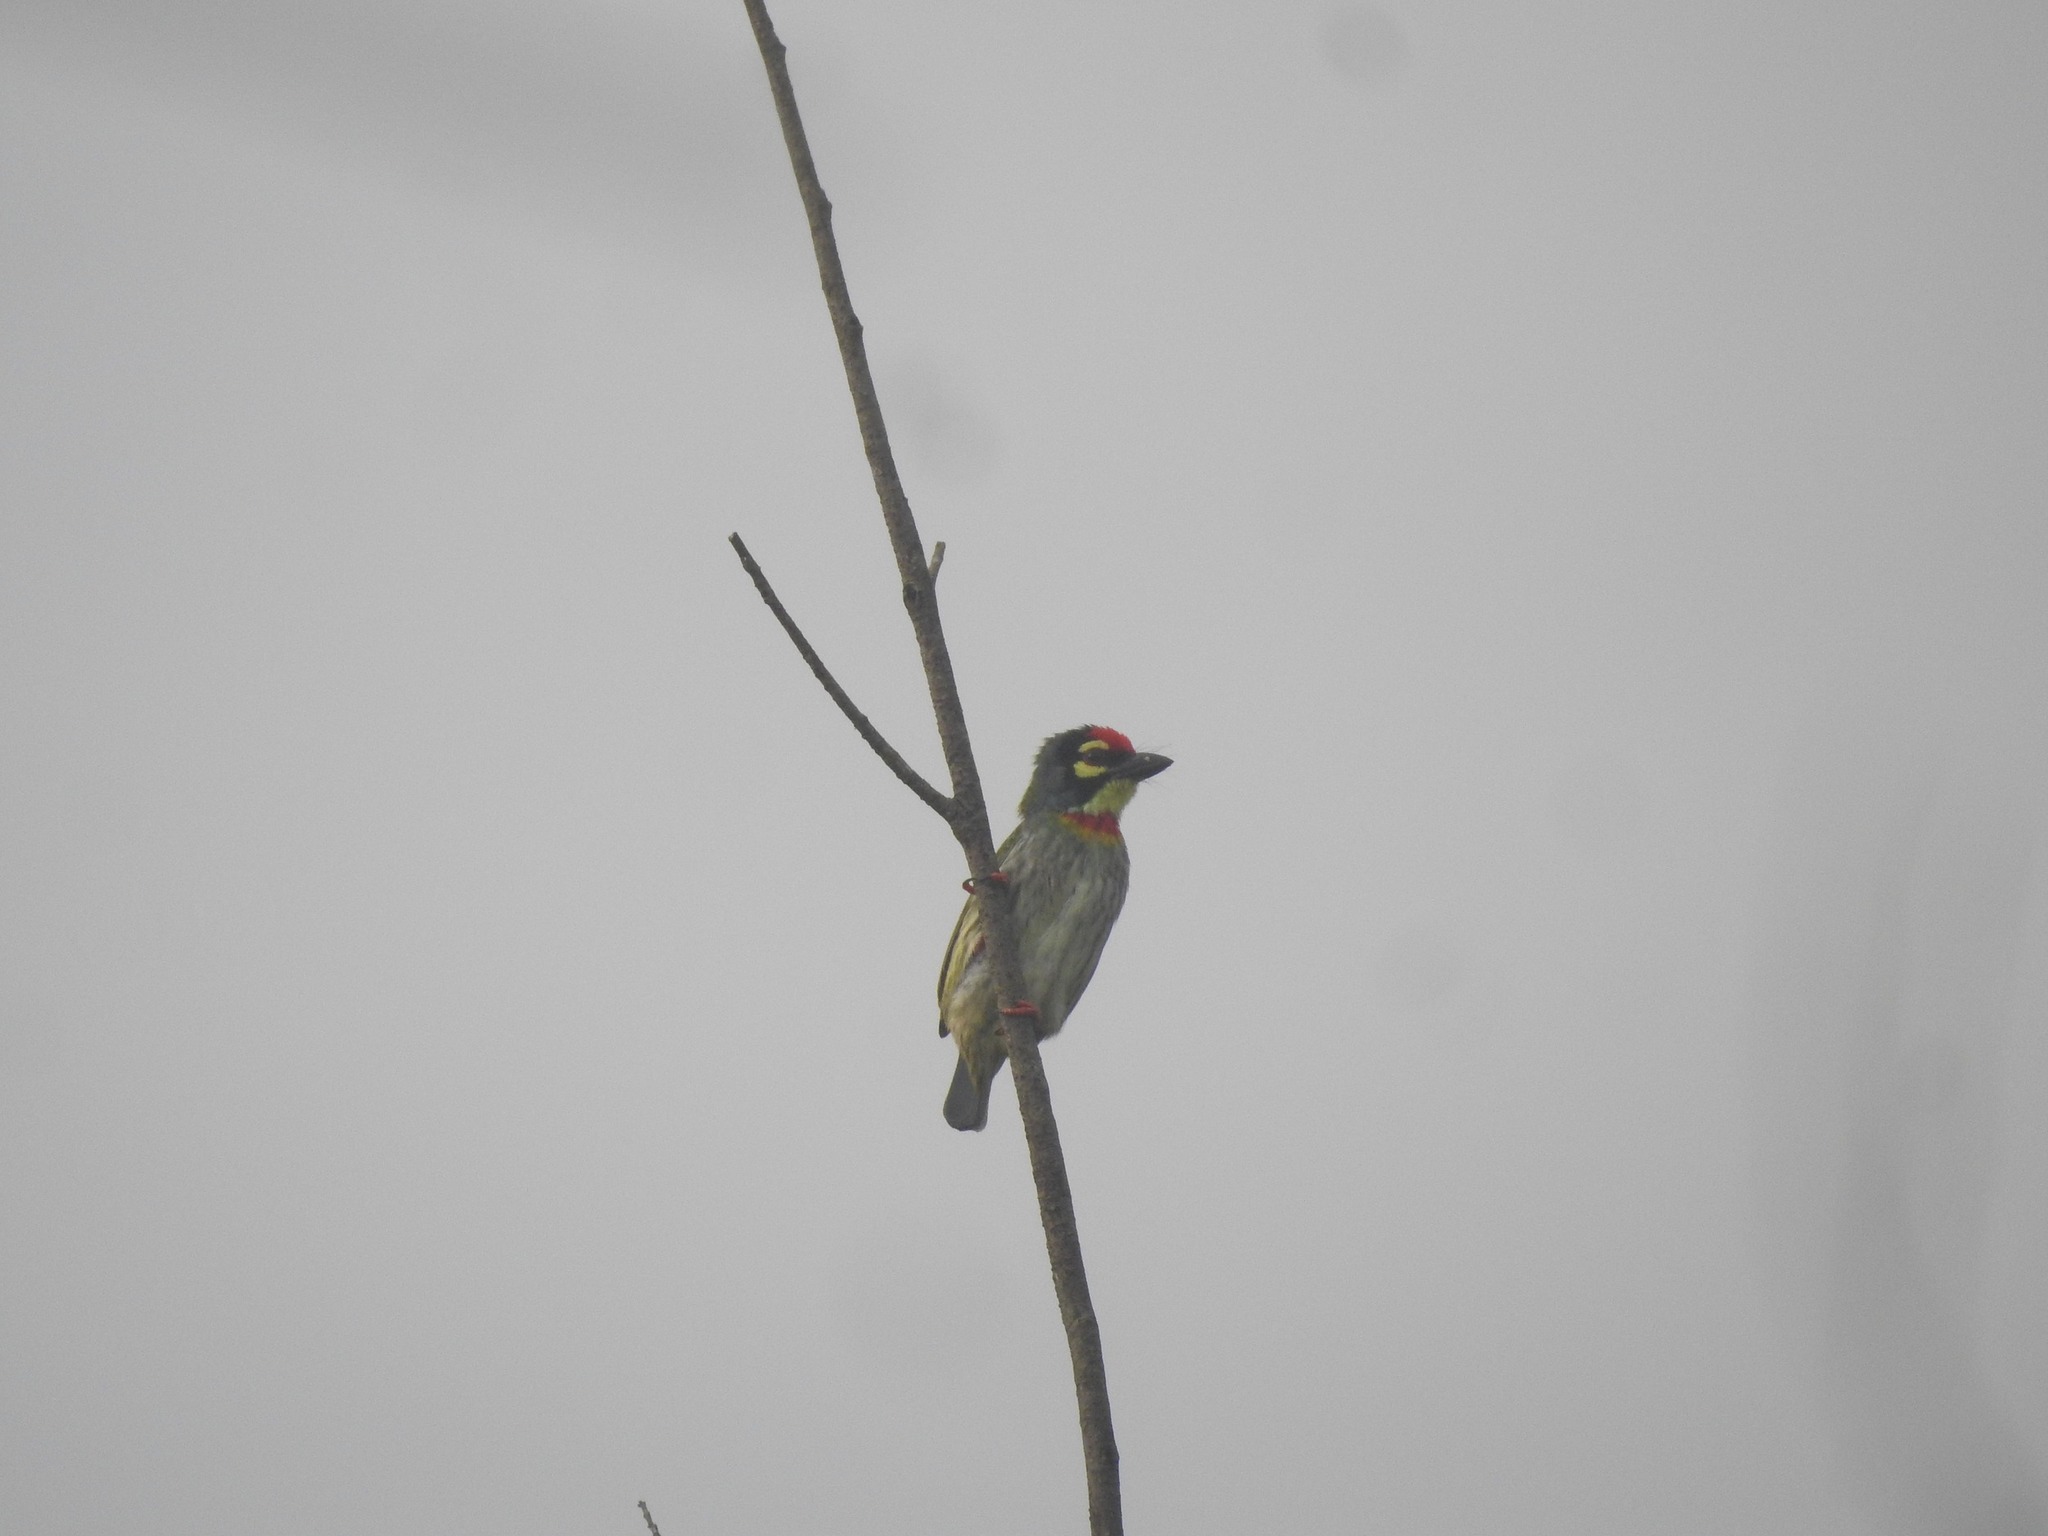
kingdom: Animalia
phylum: Chordata
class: Aves
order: Piciformes
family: Megalaimidae
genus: Psilopogon
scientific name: Psilopogon haemacephalus
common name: Coppersmith barbet
